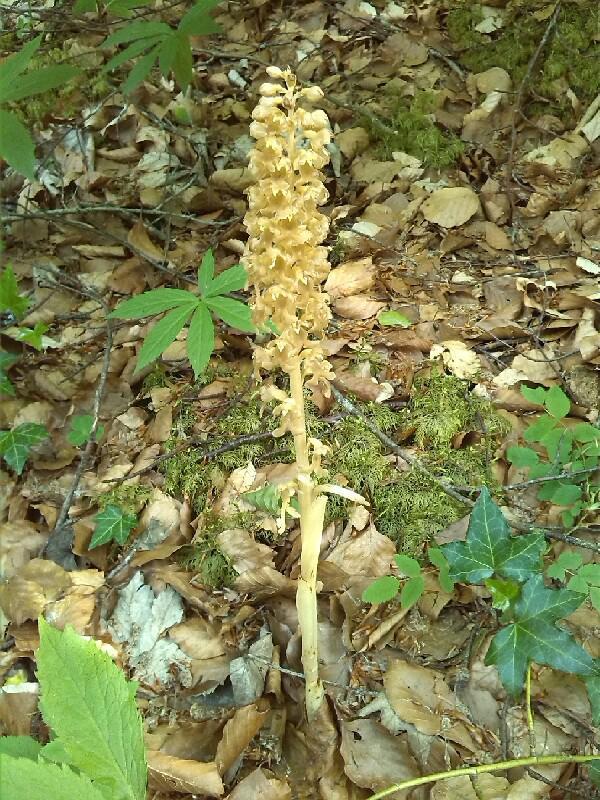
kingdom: Plantae
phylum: Tracheophyta
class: Liliopsida
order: Asparagales
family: Orchidaceae
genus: Neottia
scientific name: Neottia nidus-avis
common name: Bird's-nest orchid
